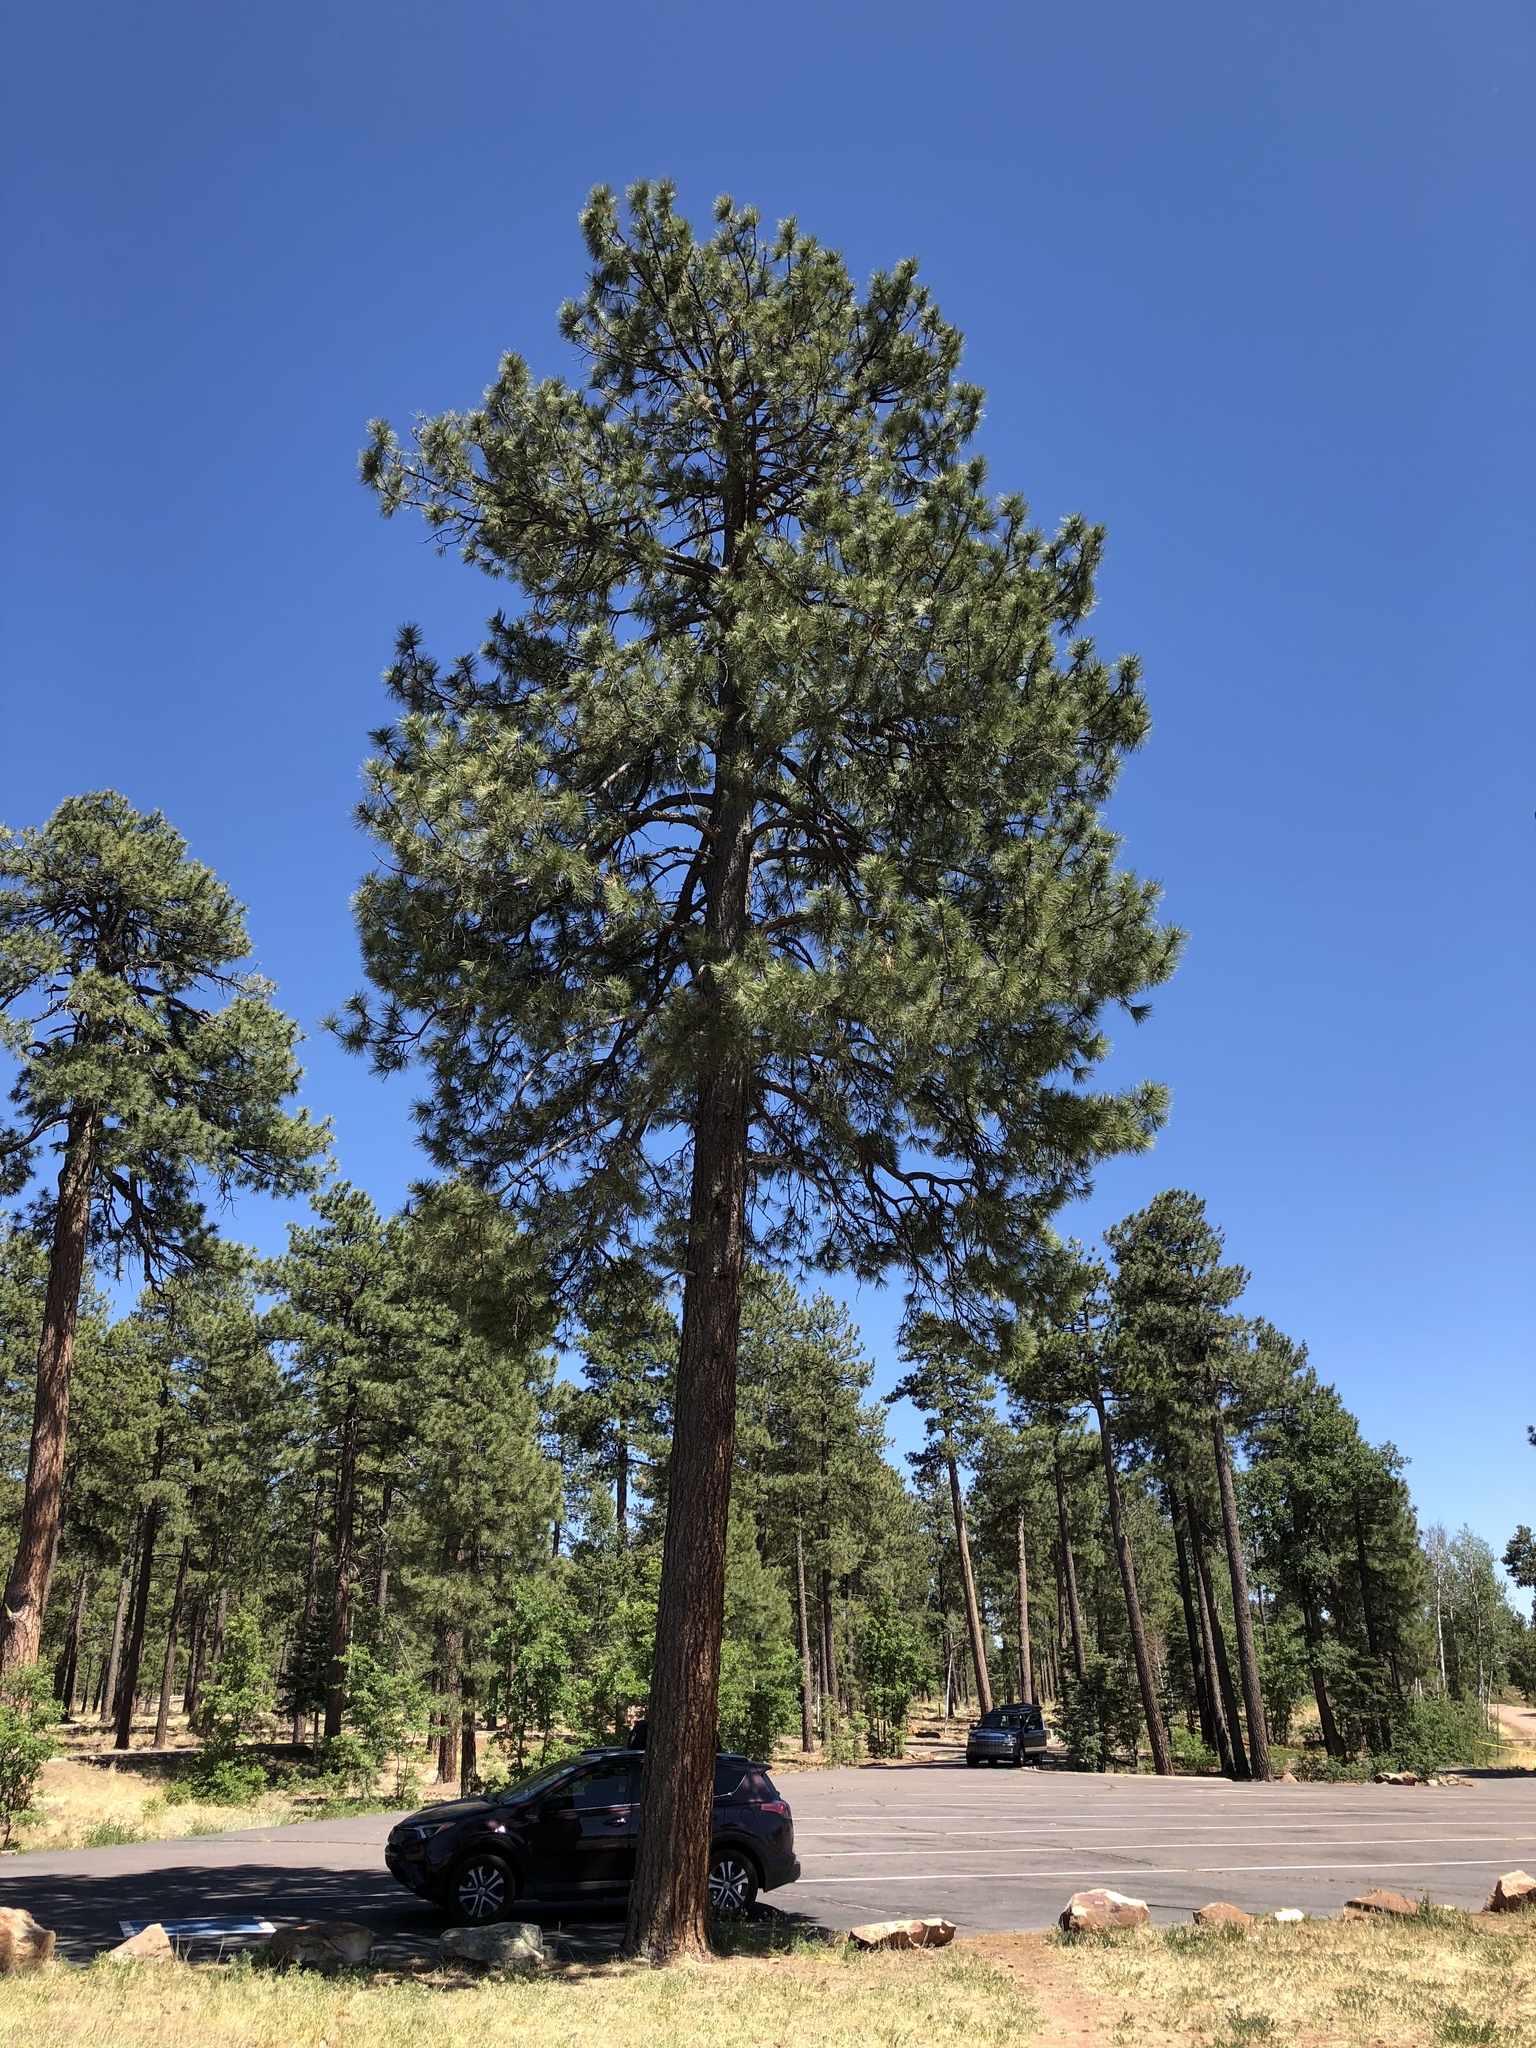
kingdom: Plantae
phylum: Tracheophyta
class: Pinopsida
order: Pinales
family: Pinaceae
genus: Pinus
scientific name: Pinus ponderosa
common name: Western yellow-pine
